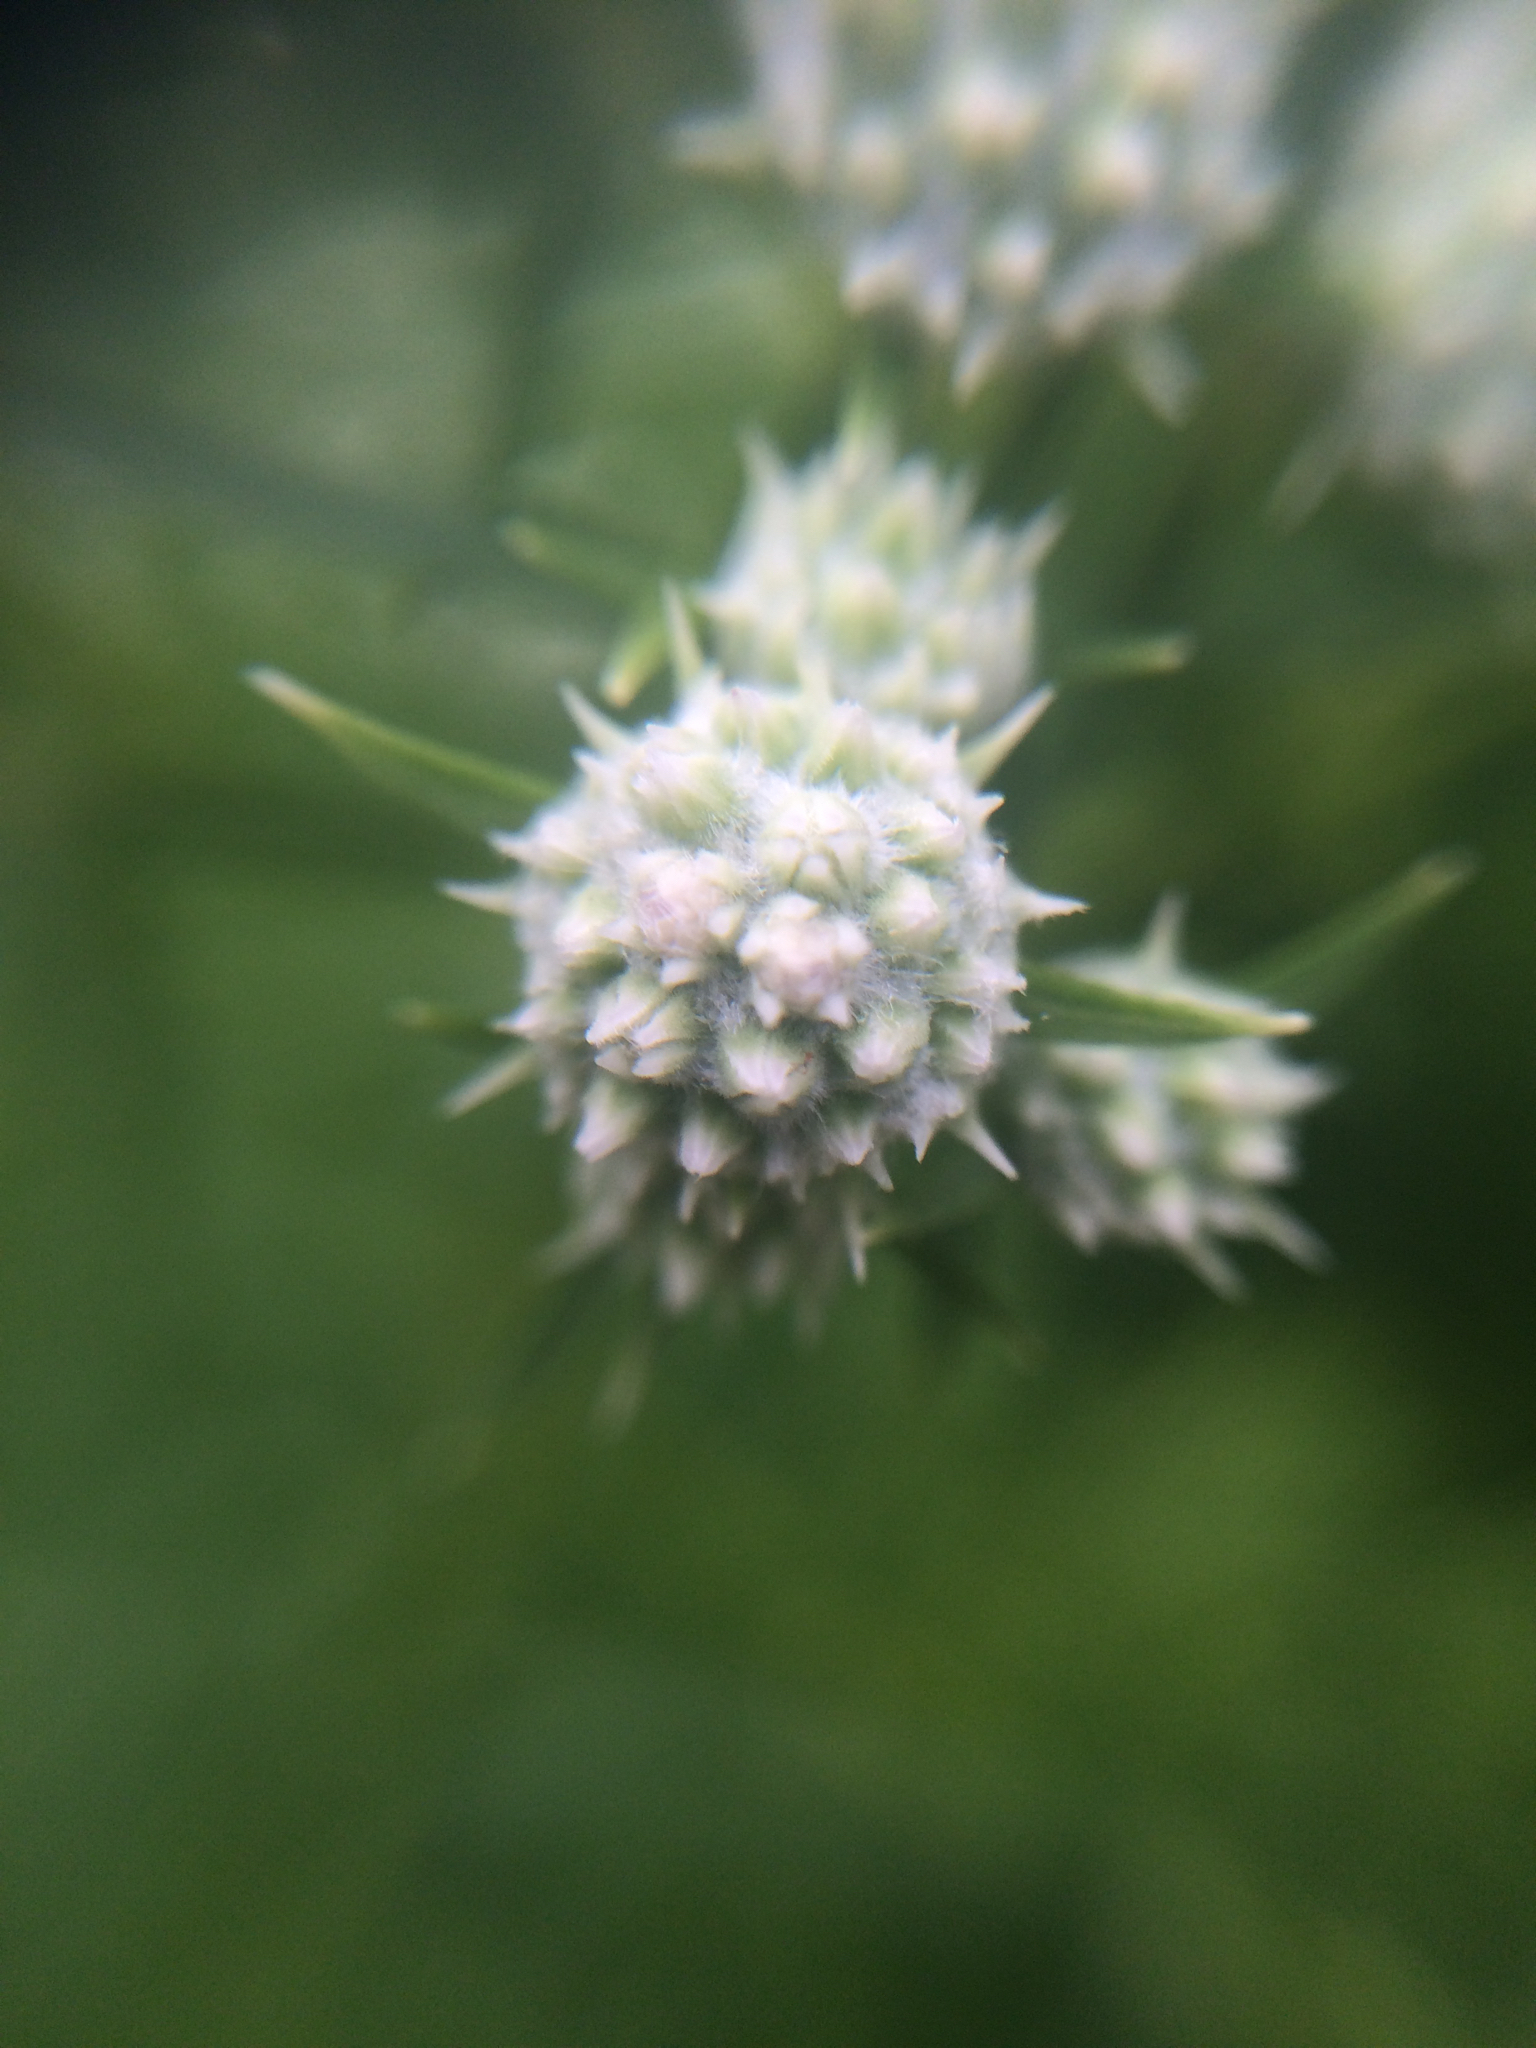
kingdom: Plantae
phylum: Tracheophyta
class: Magnoliopsida
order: Lamiales
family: Lamiaceae
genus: Pycnanthemum
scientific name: Pycnanthemum tenuifolium
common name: Narrow-leaf mountain-mint
